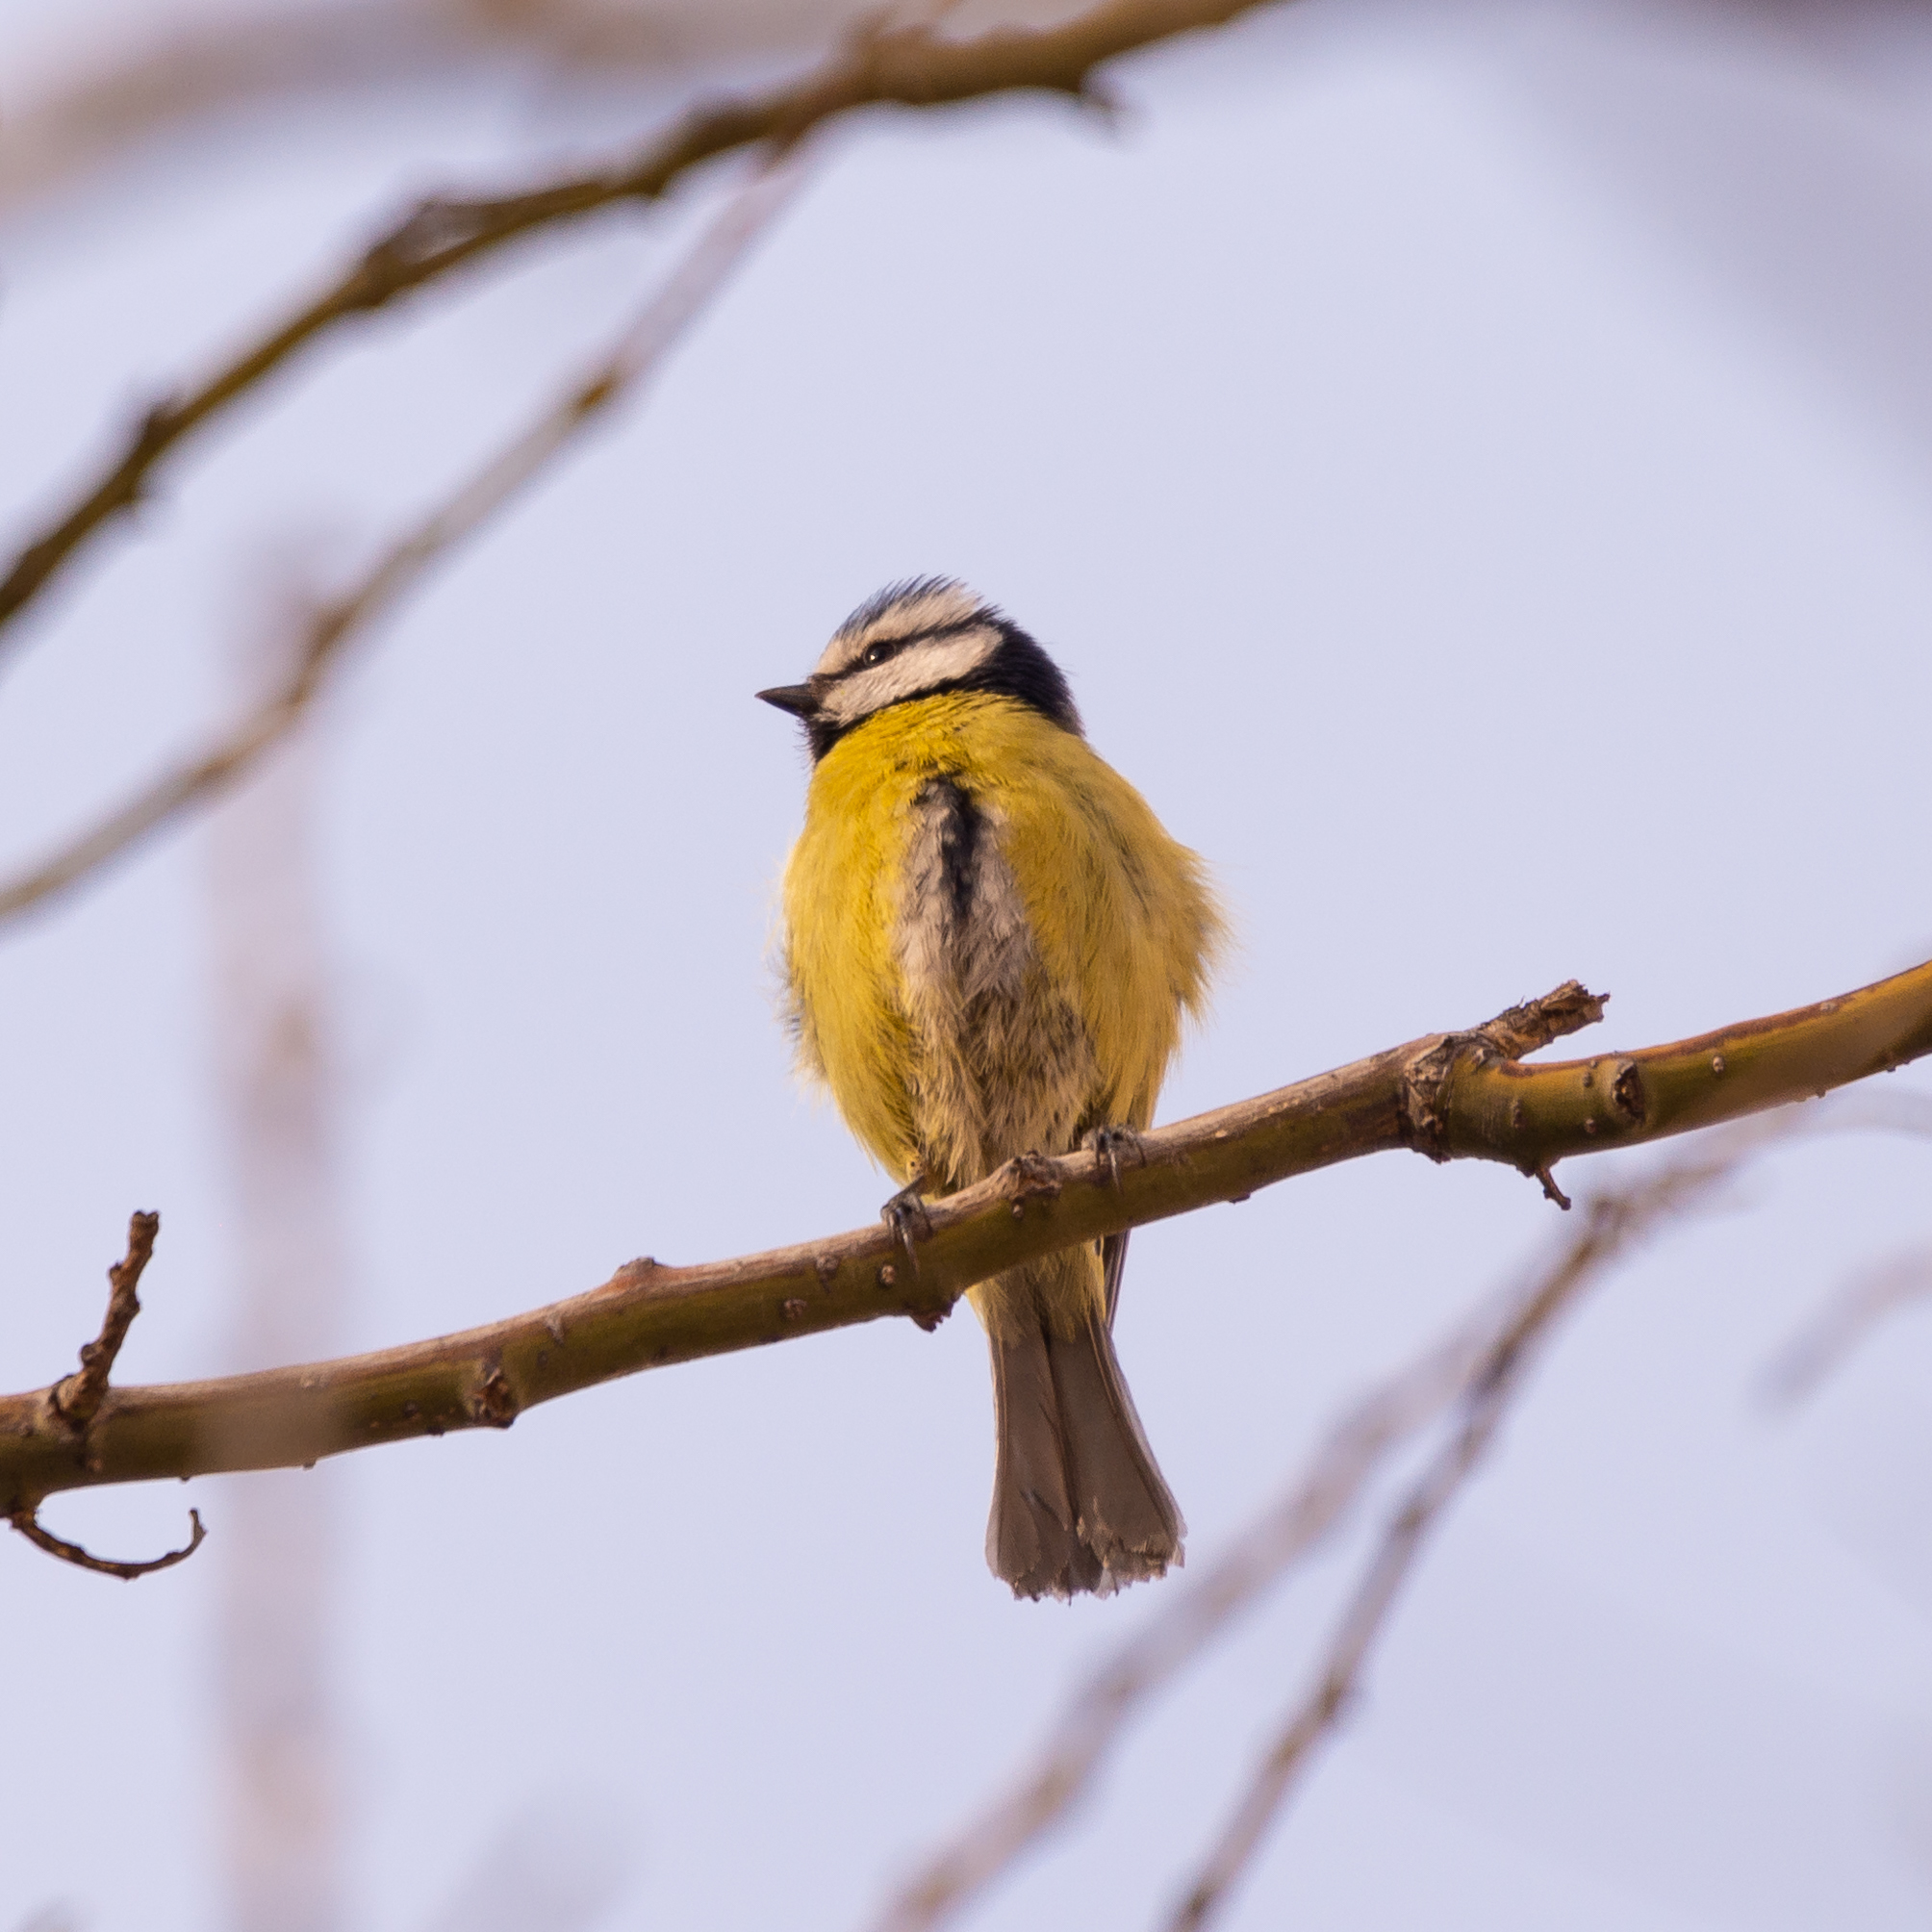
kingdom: Animalia
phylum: Chordata
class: Aves
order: Passeriformes
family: Paridae
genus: Cyanistes
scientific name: Cyanistes caeruleus
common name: Eurasian blue tit
